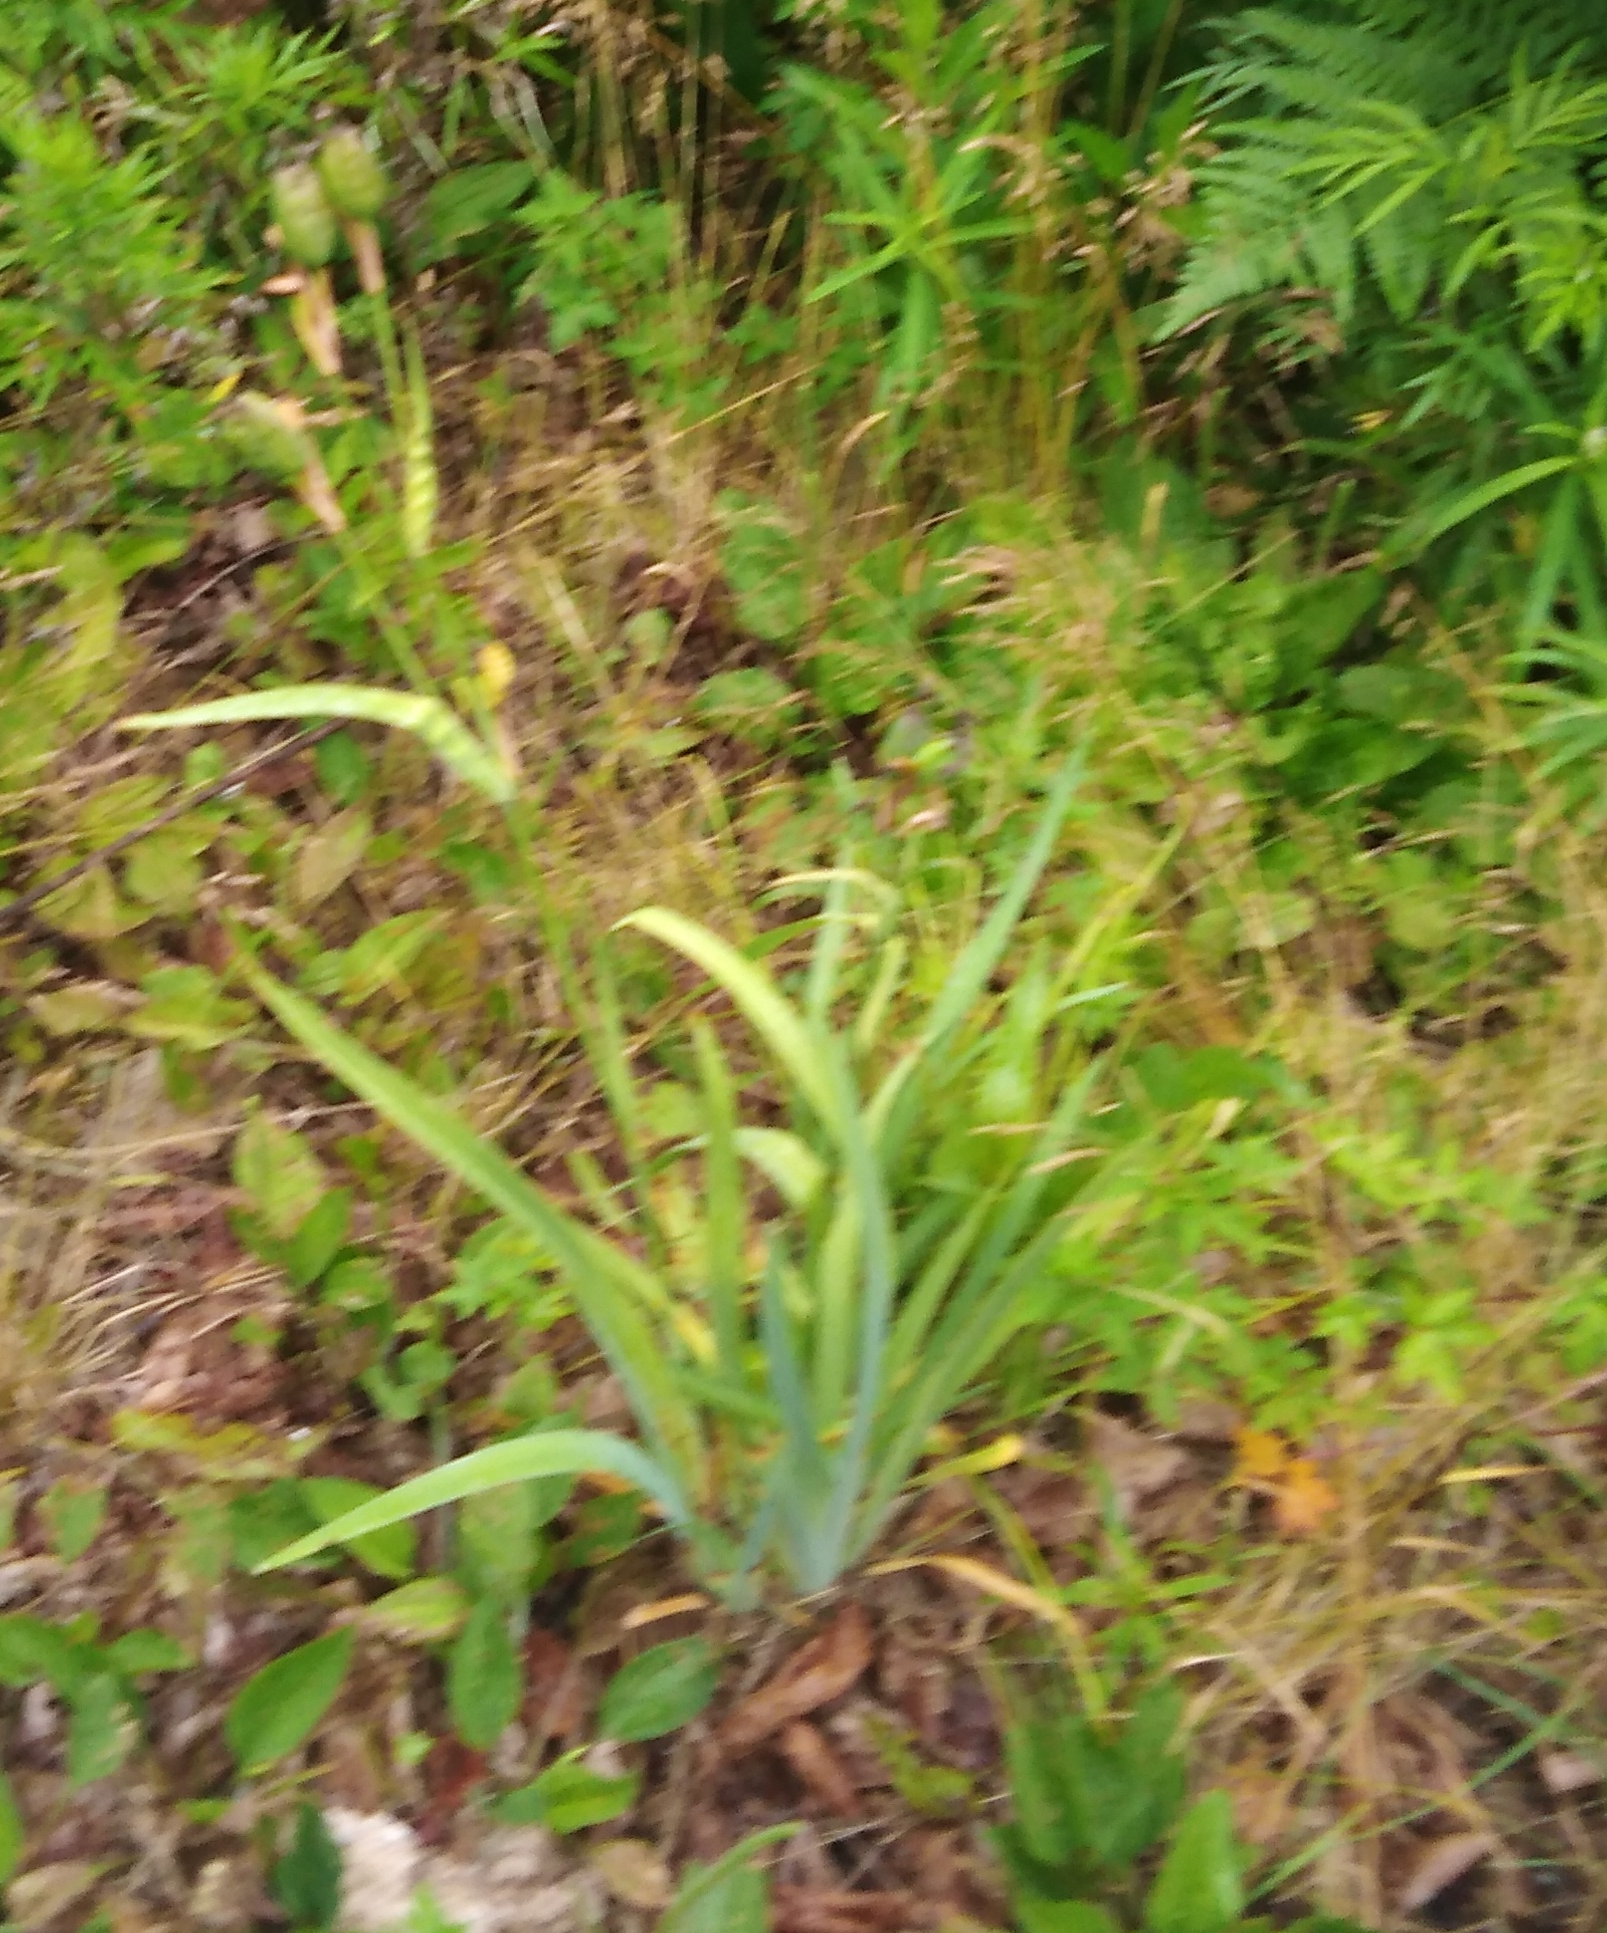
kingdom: Plantae
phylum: Tracheophyta
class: Liliopsida
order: Asparagales
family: Iridaceae
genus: Iris
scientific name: Iris setosa
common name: Arctic blue flag
